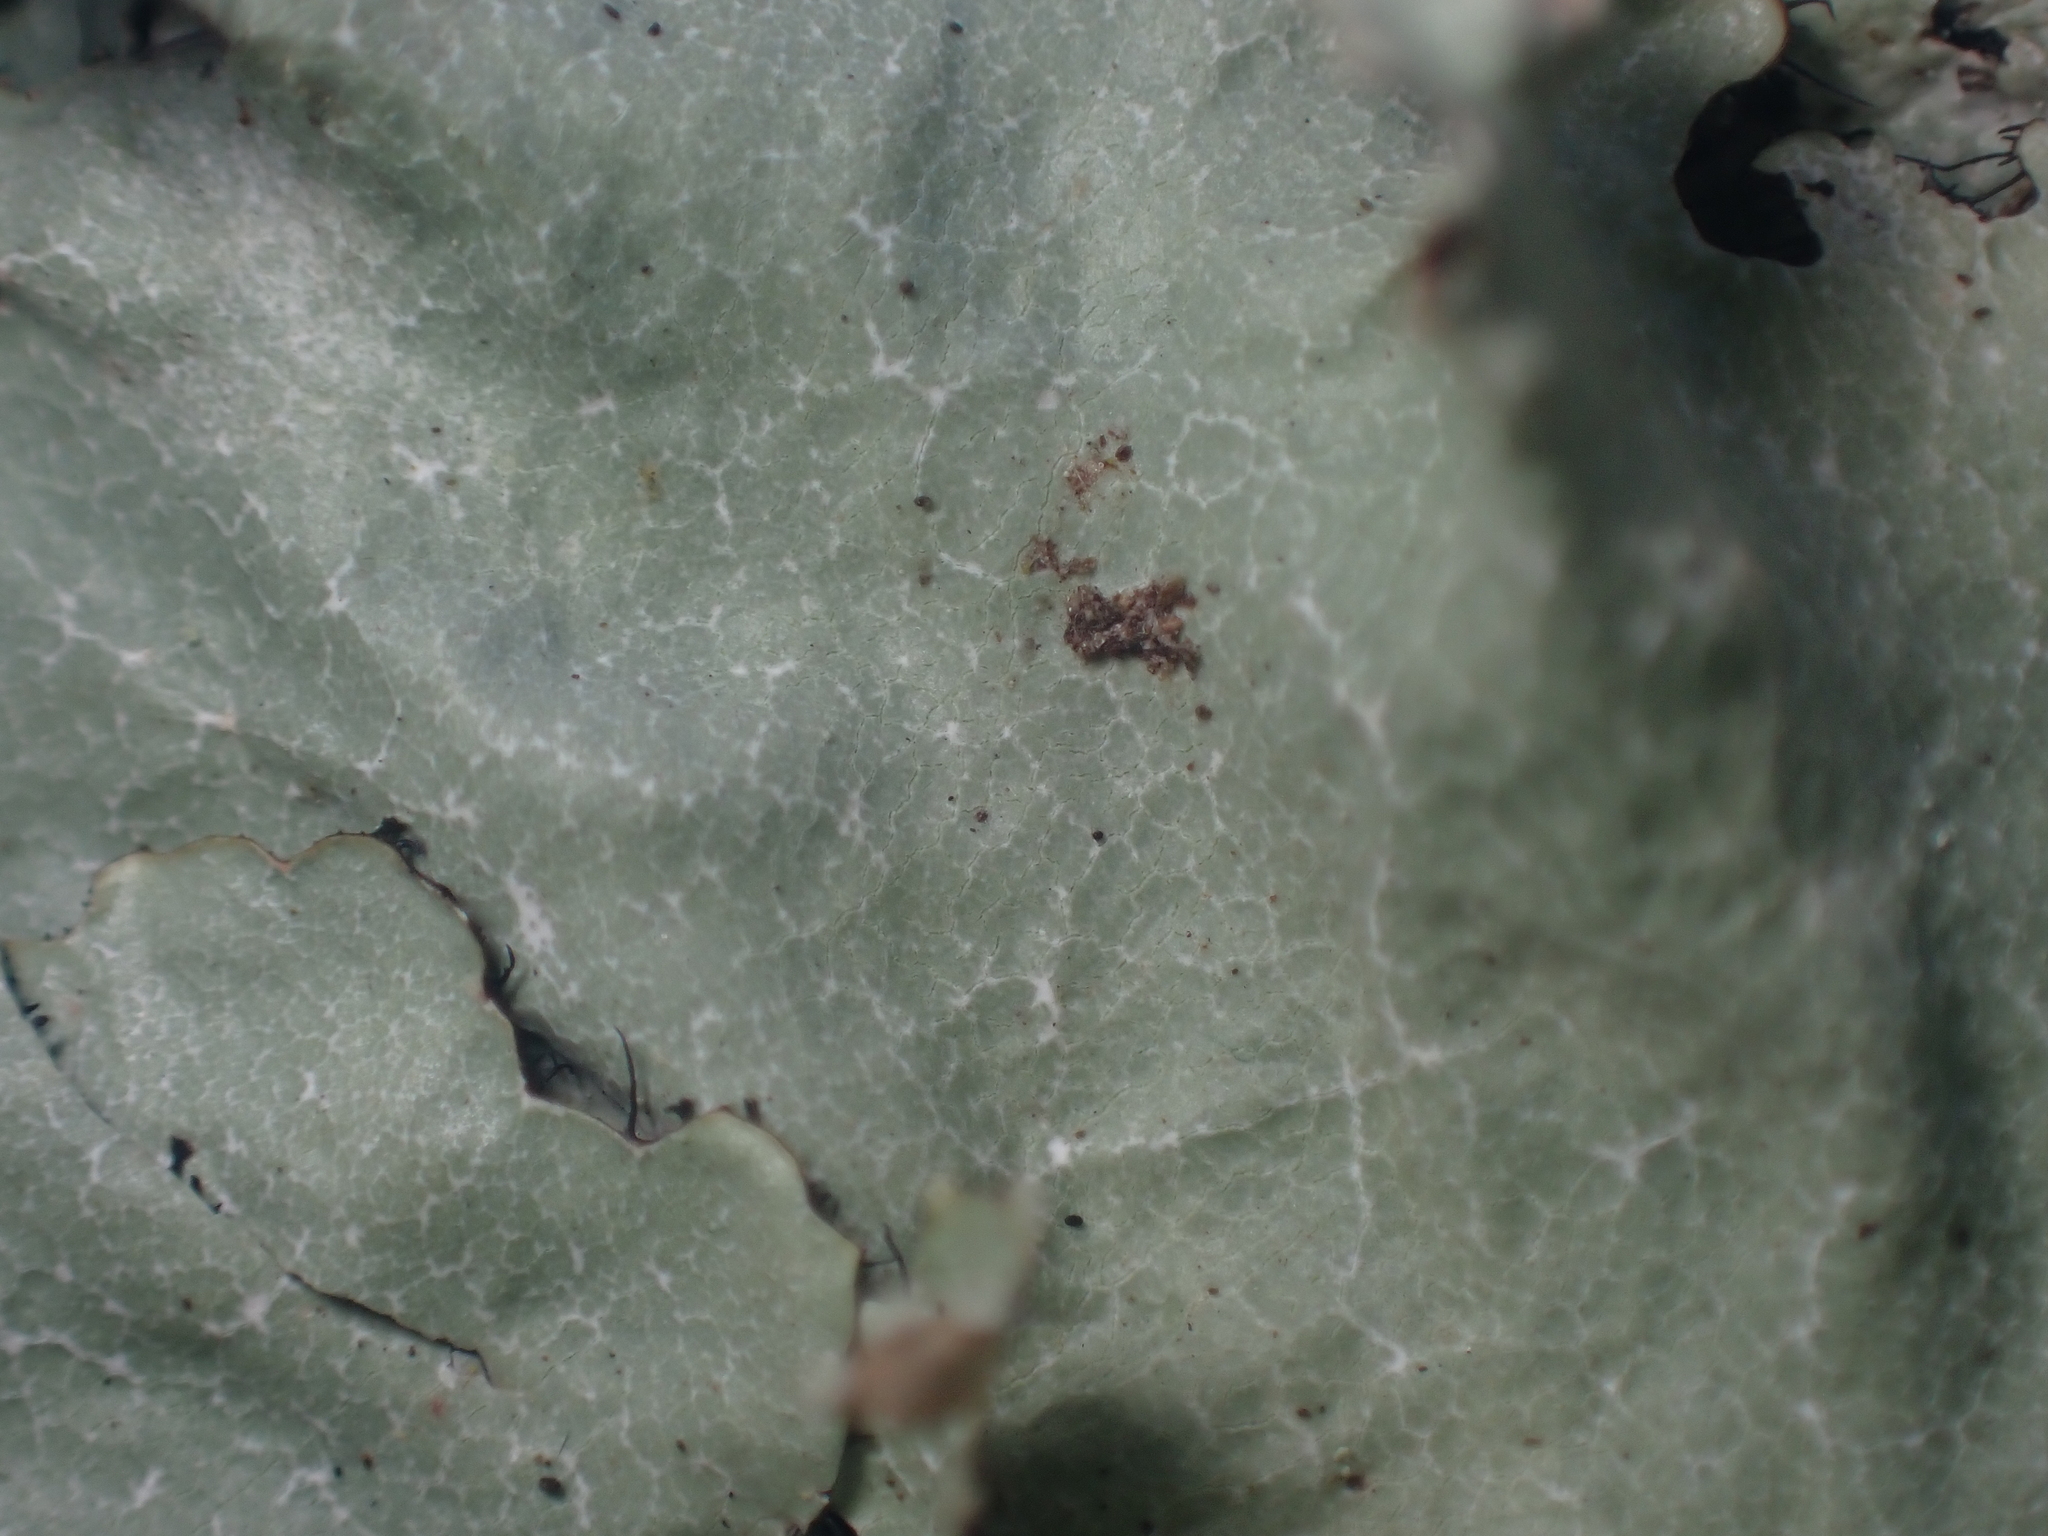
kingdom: Fungi
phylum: Ascomycota
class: Lecanoromycetes
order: Lecanorales
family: Parmeliaceae
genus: Parmotrema
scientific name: Parmotrema reticulatum
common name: Black sheet lichen
